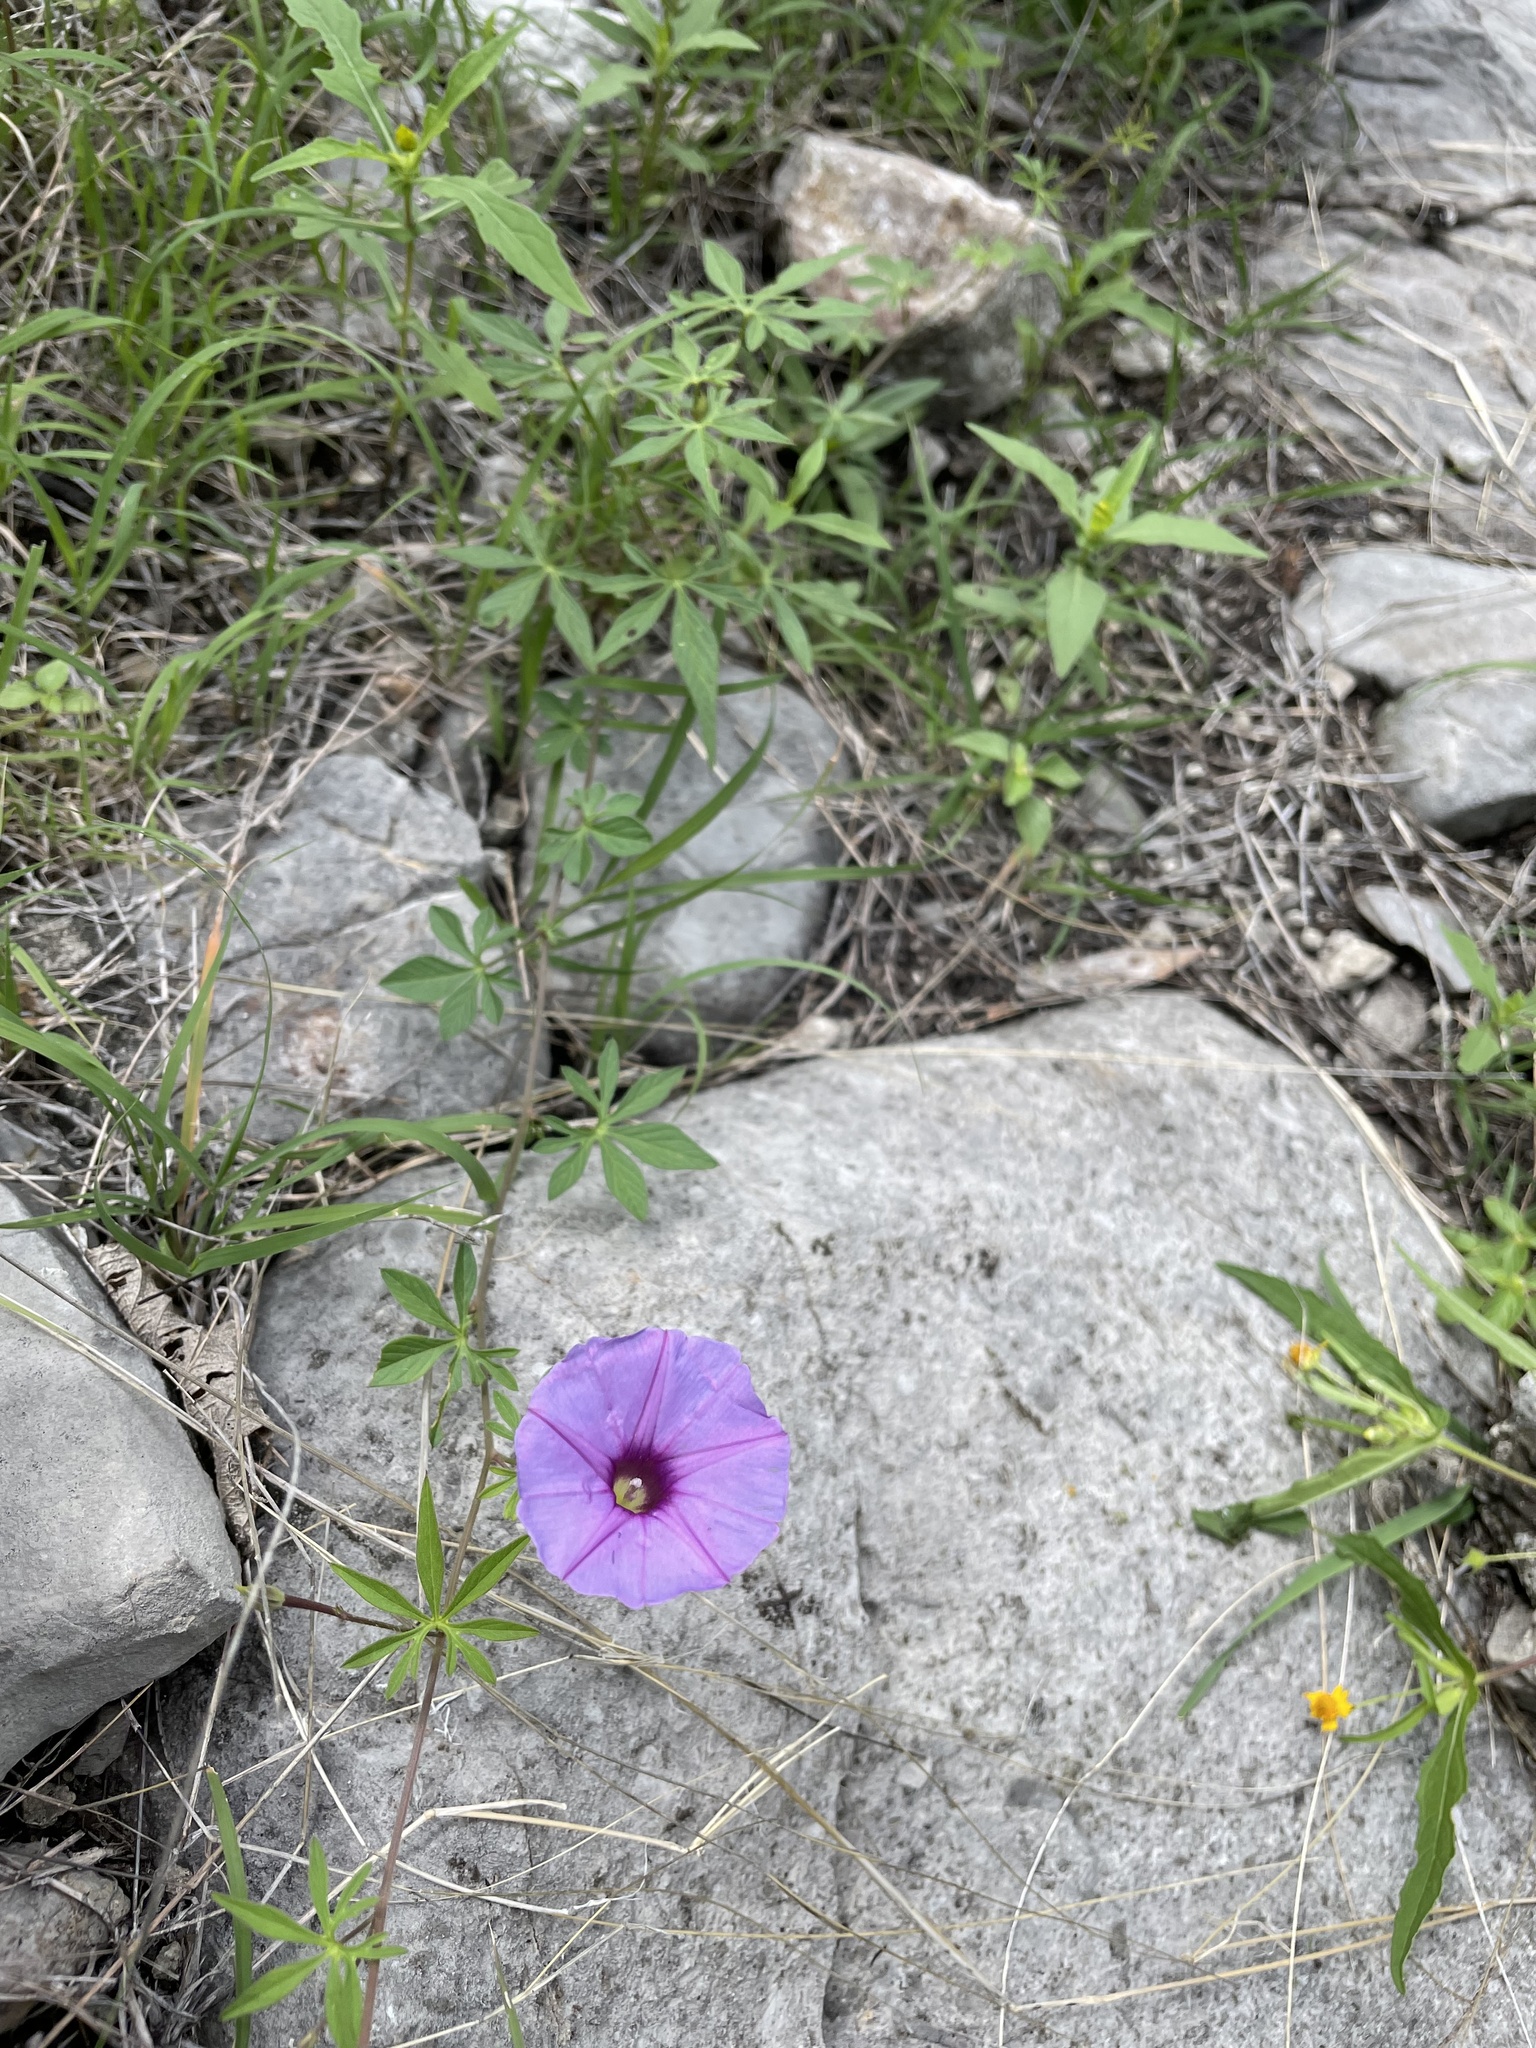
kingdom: Plantae
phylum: Tracheophyta
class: Magnoliopsida
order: Solanales
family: Convolvulaceae
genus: Ipomoea
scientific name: Ipomoea ternifolia
